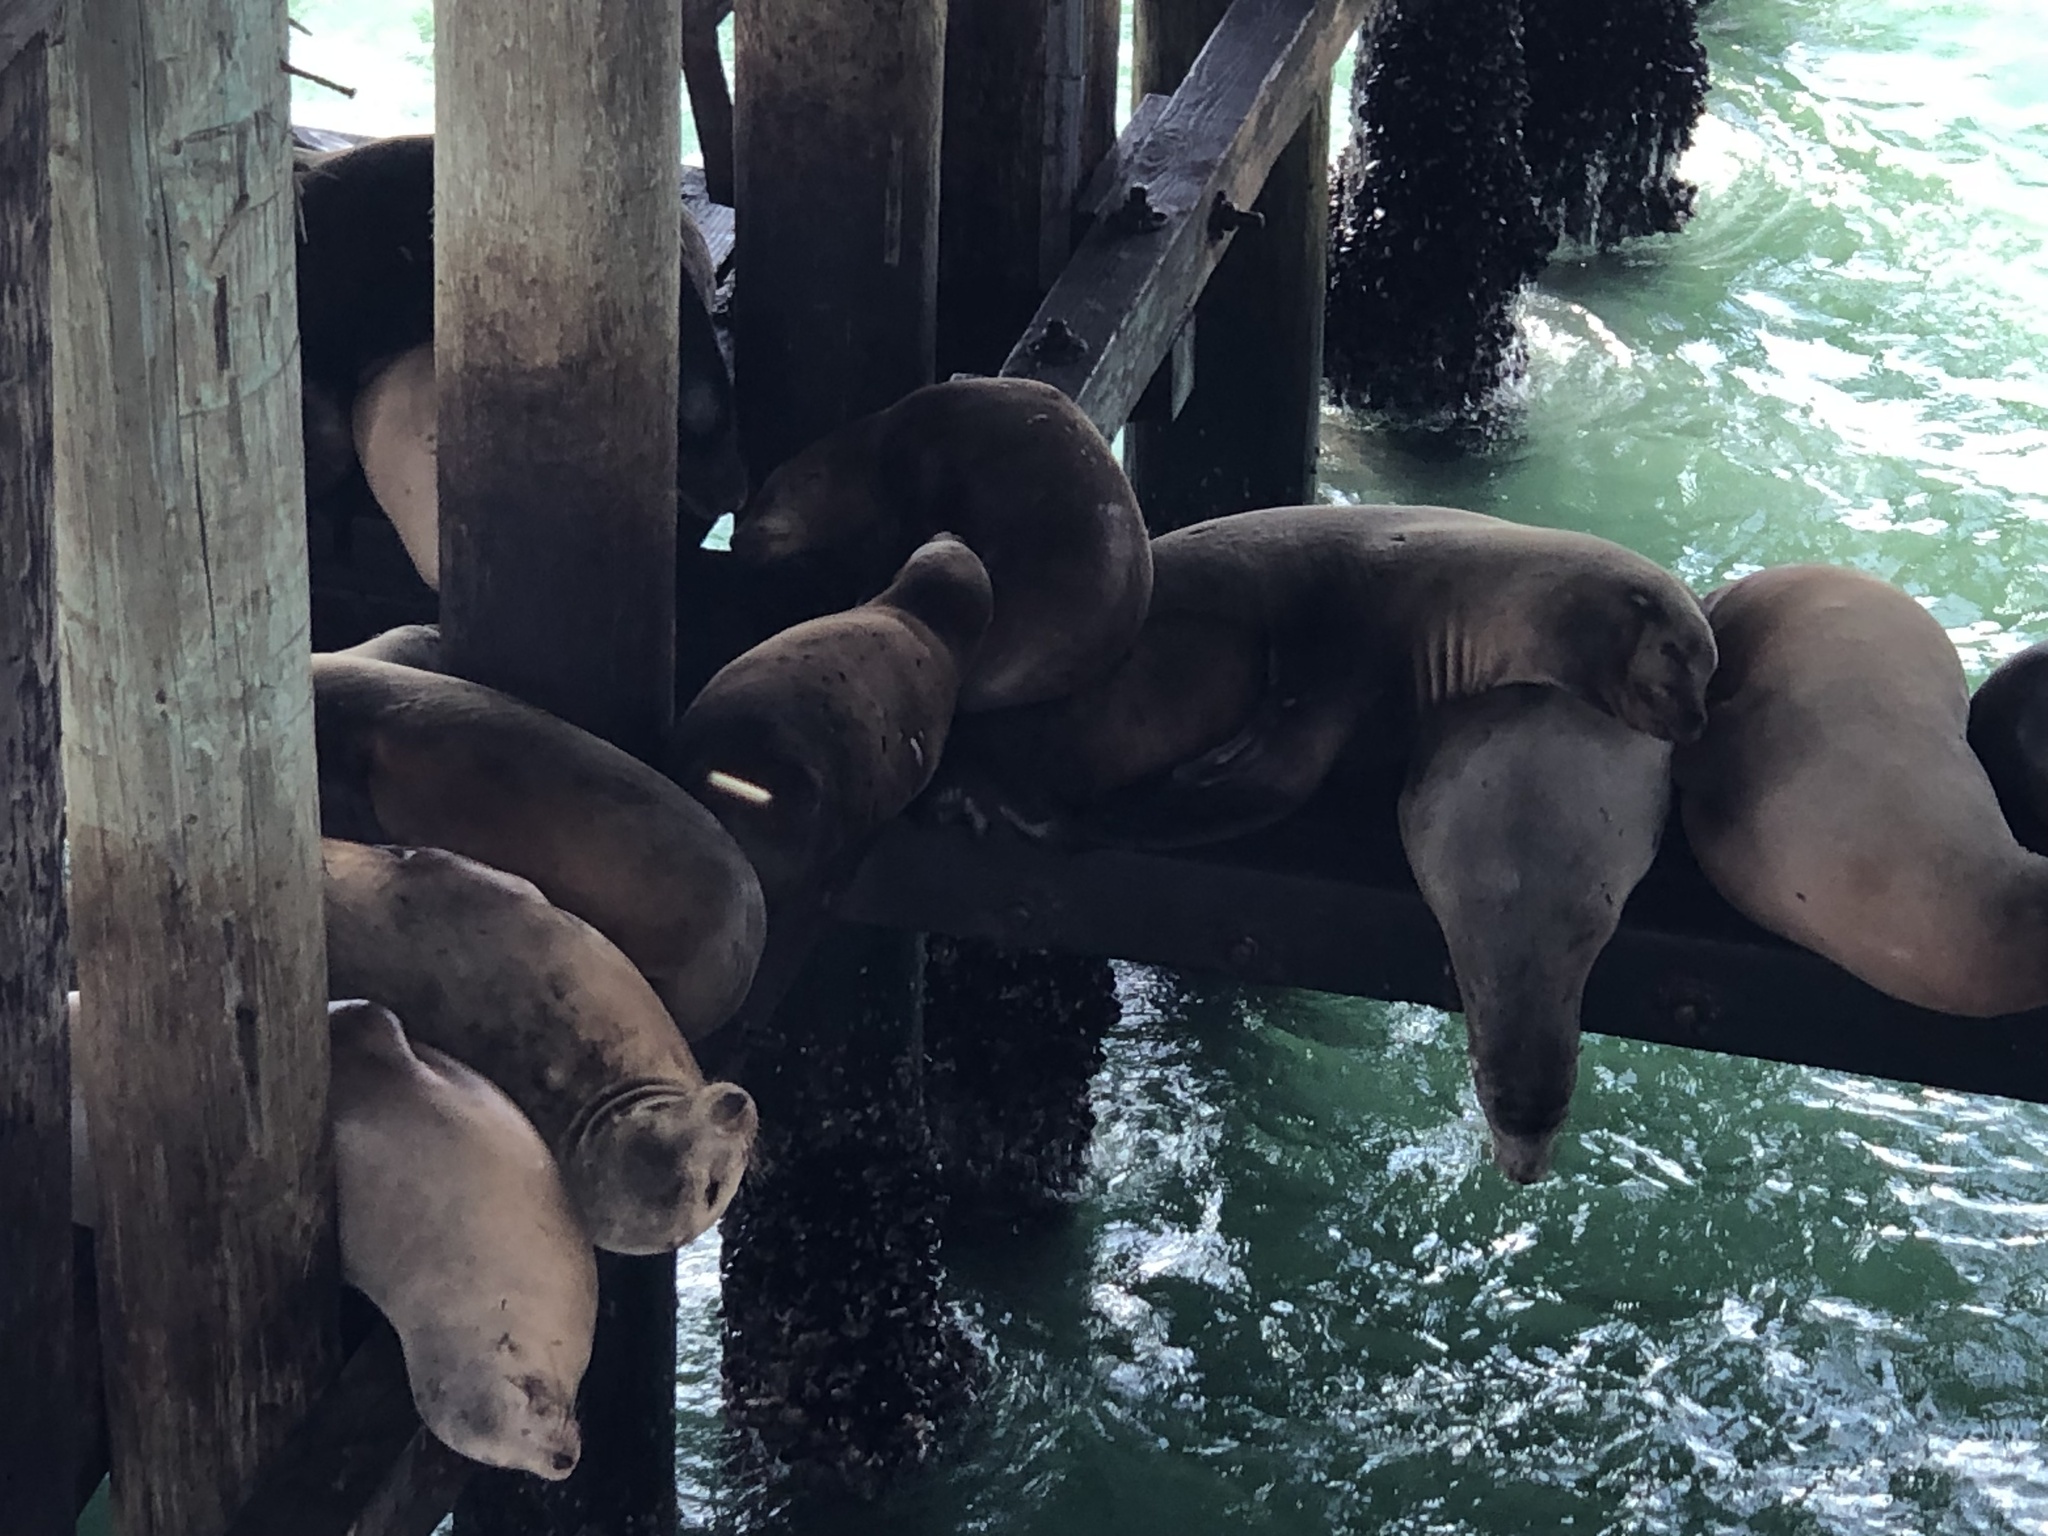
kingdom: Animalia
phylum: Chordata
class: Mammalia
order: Carnivora
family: Otariidae
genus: Zalophus
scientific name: Zalophus californianus
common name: California sea lion
